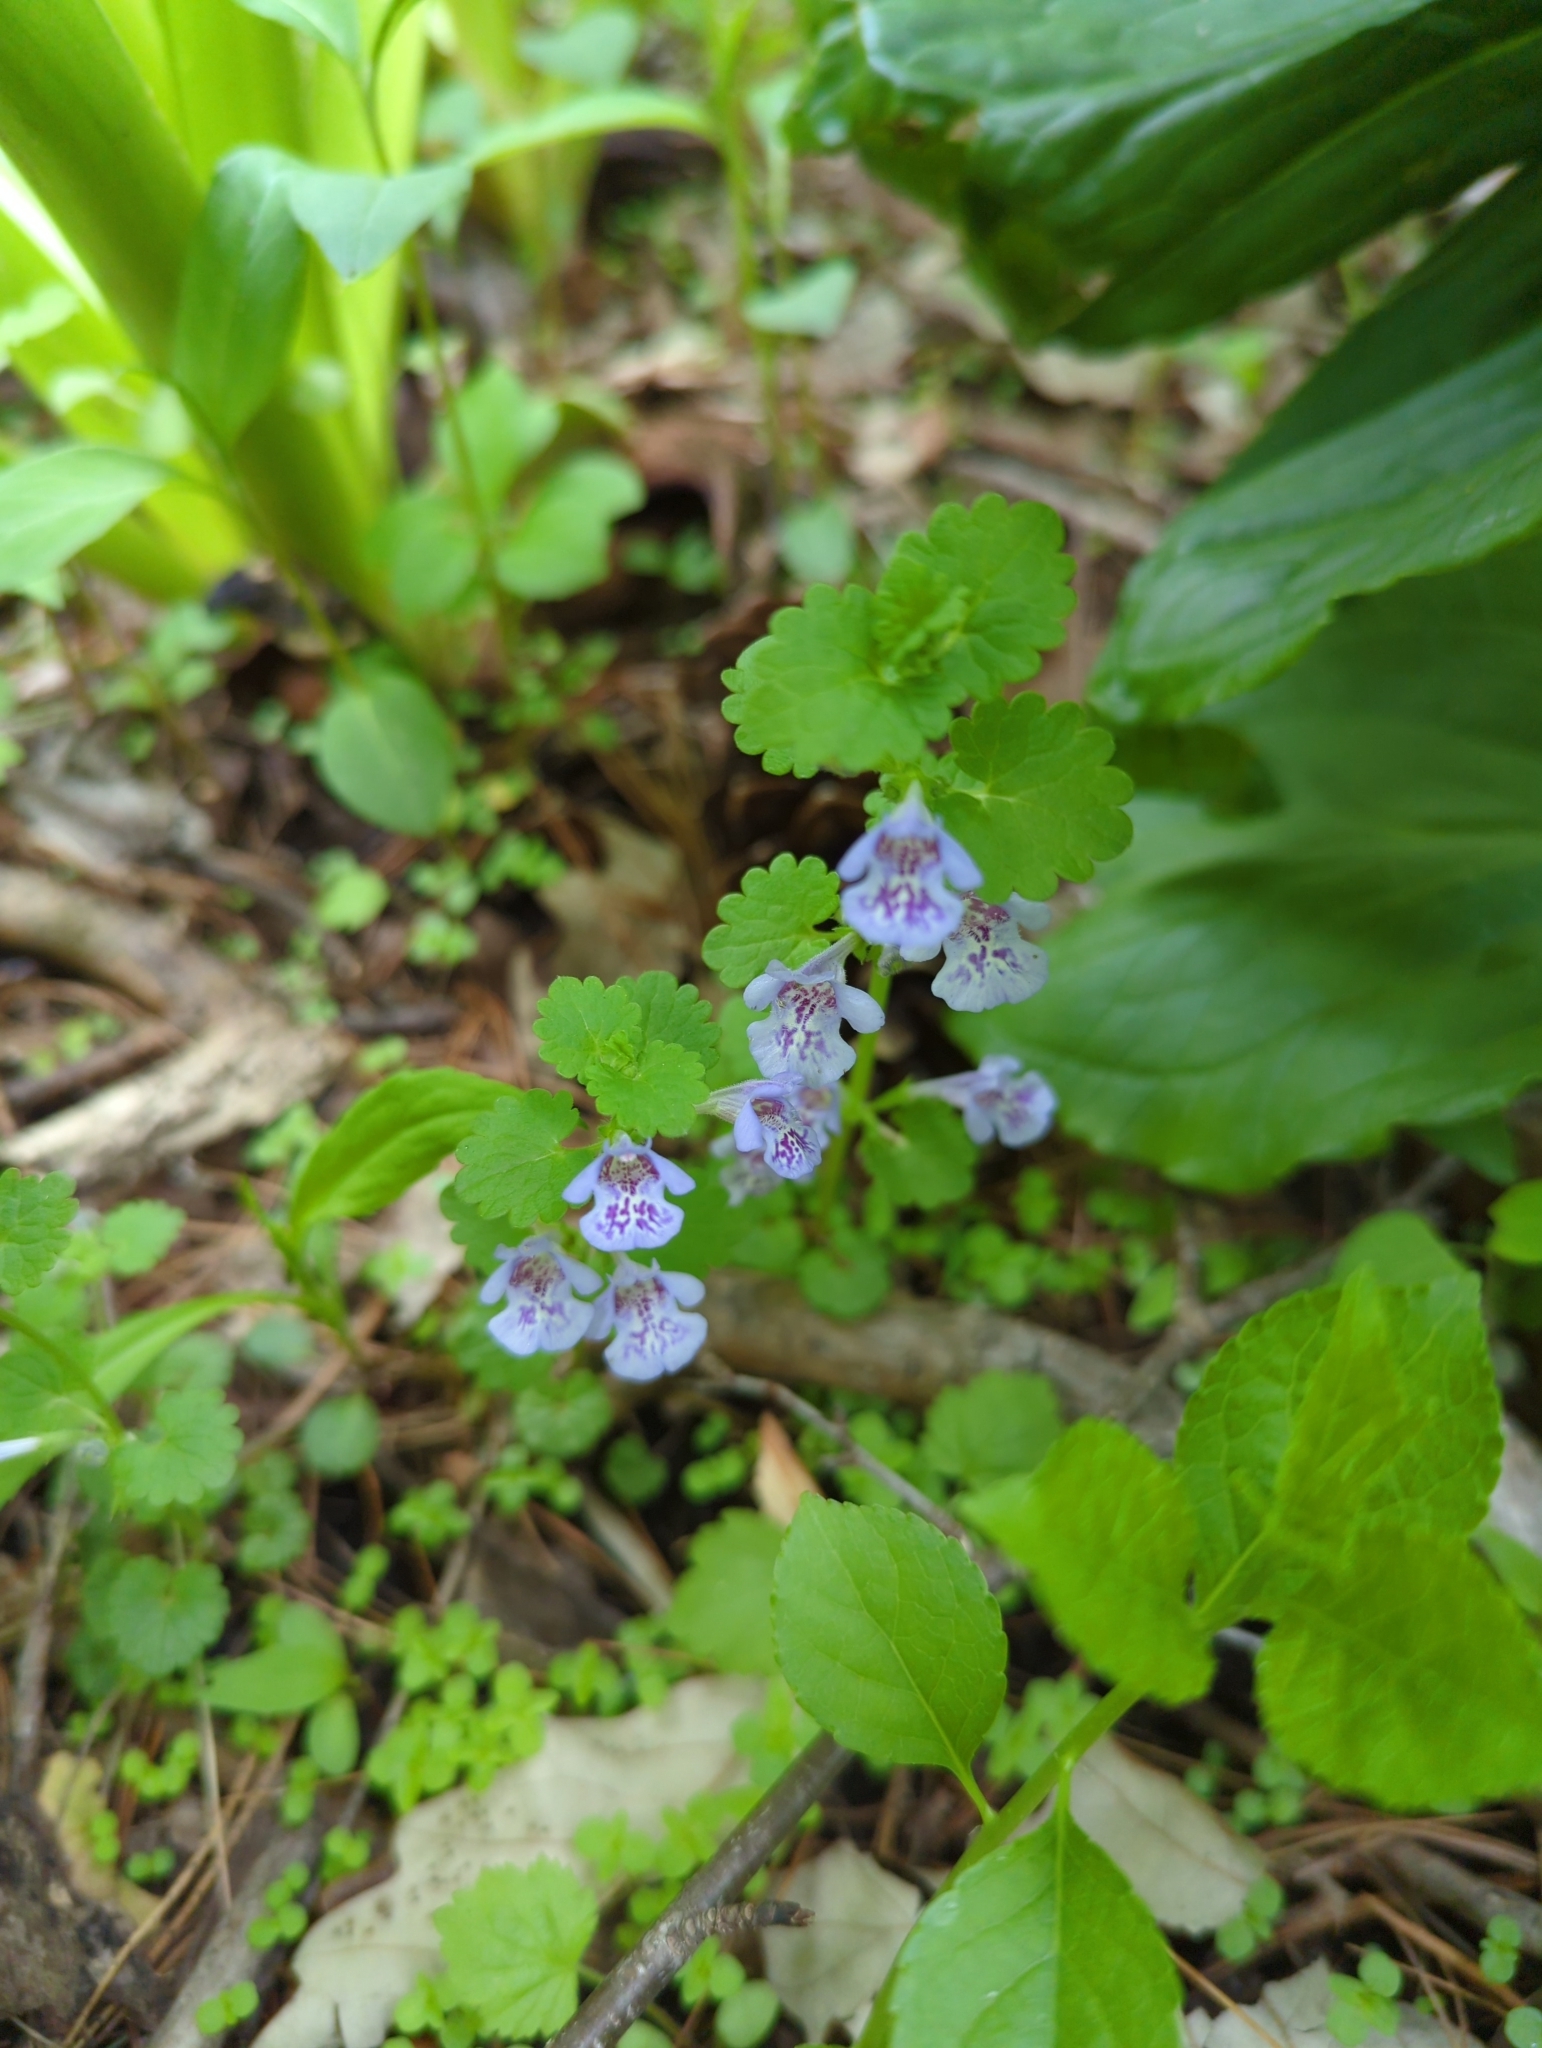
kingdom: Plantae
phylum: Tracheophyta
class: Magnoliopsida
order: Lamiales
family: Lamiaceae
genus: Glechoma
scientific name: Glechoma hederacea
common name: Ground ivy
